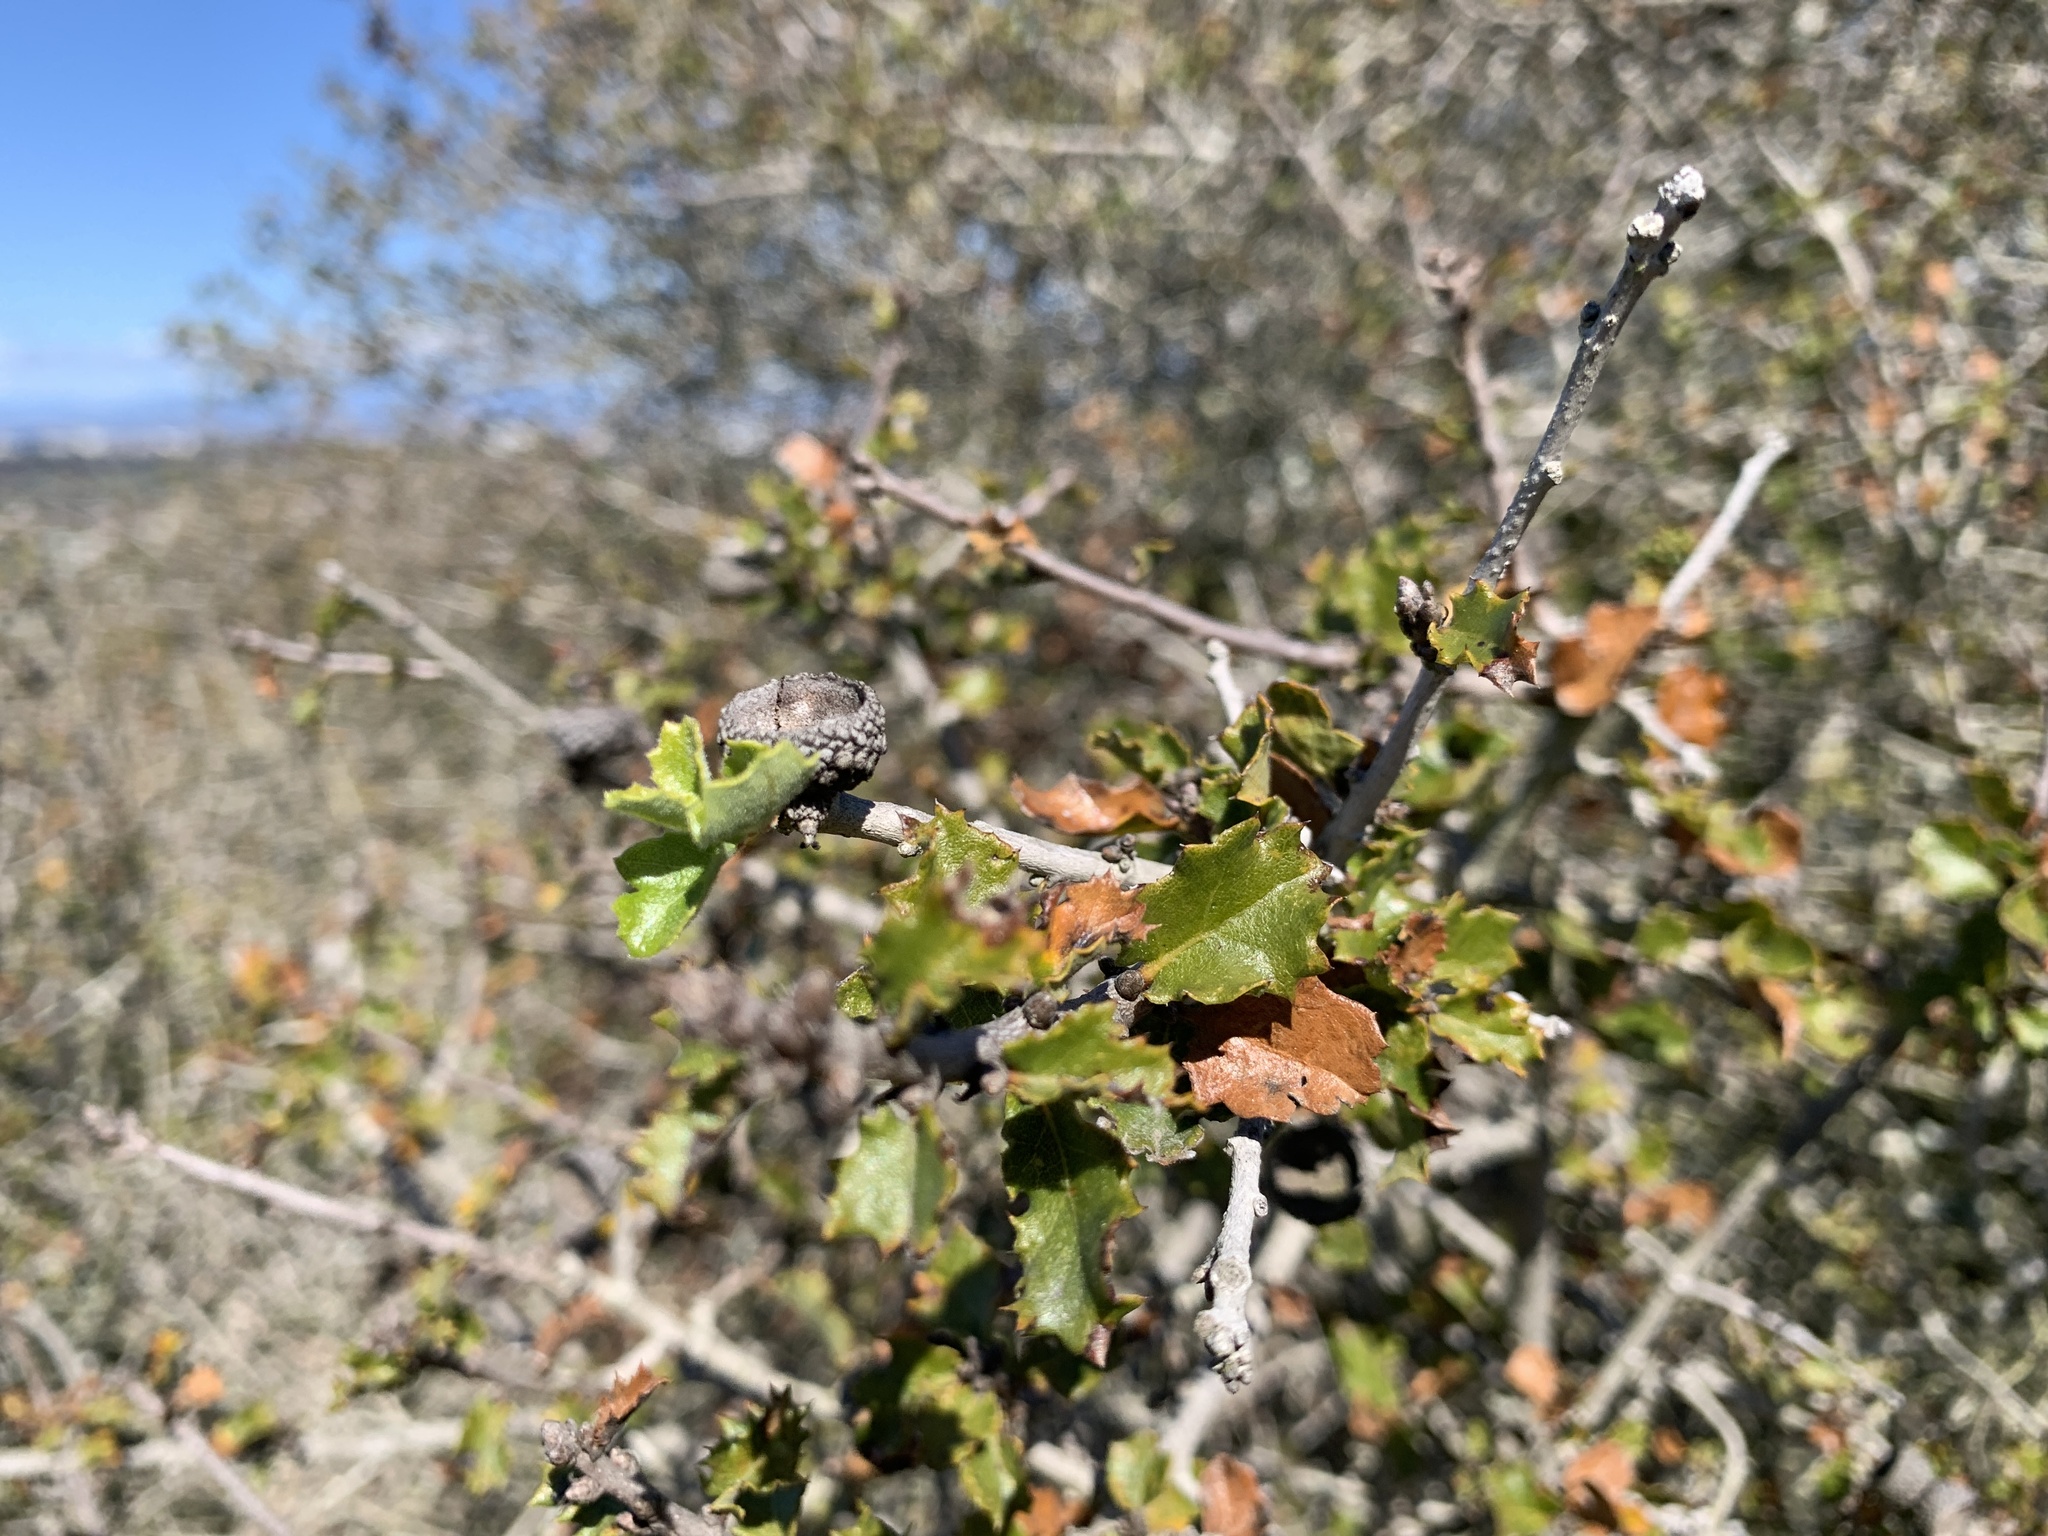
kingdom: Plantae
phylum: Tracheophyta
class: Magnoliopsida
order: Fagales
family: Fagaceae
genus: Quercus
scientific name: Quercus dumosa
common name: Coastal sage scrub oak
